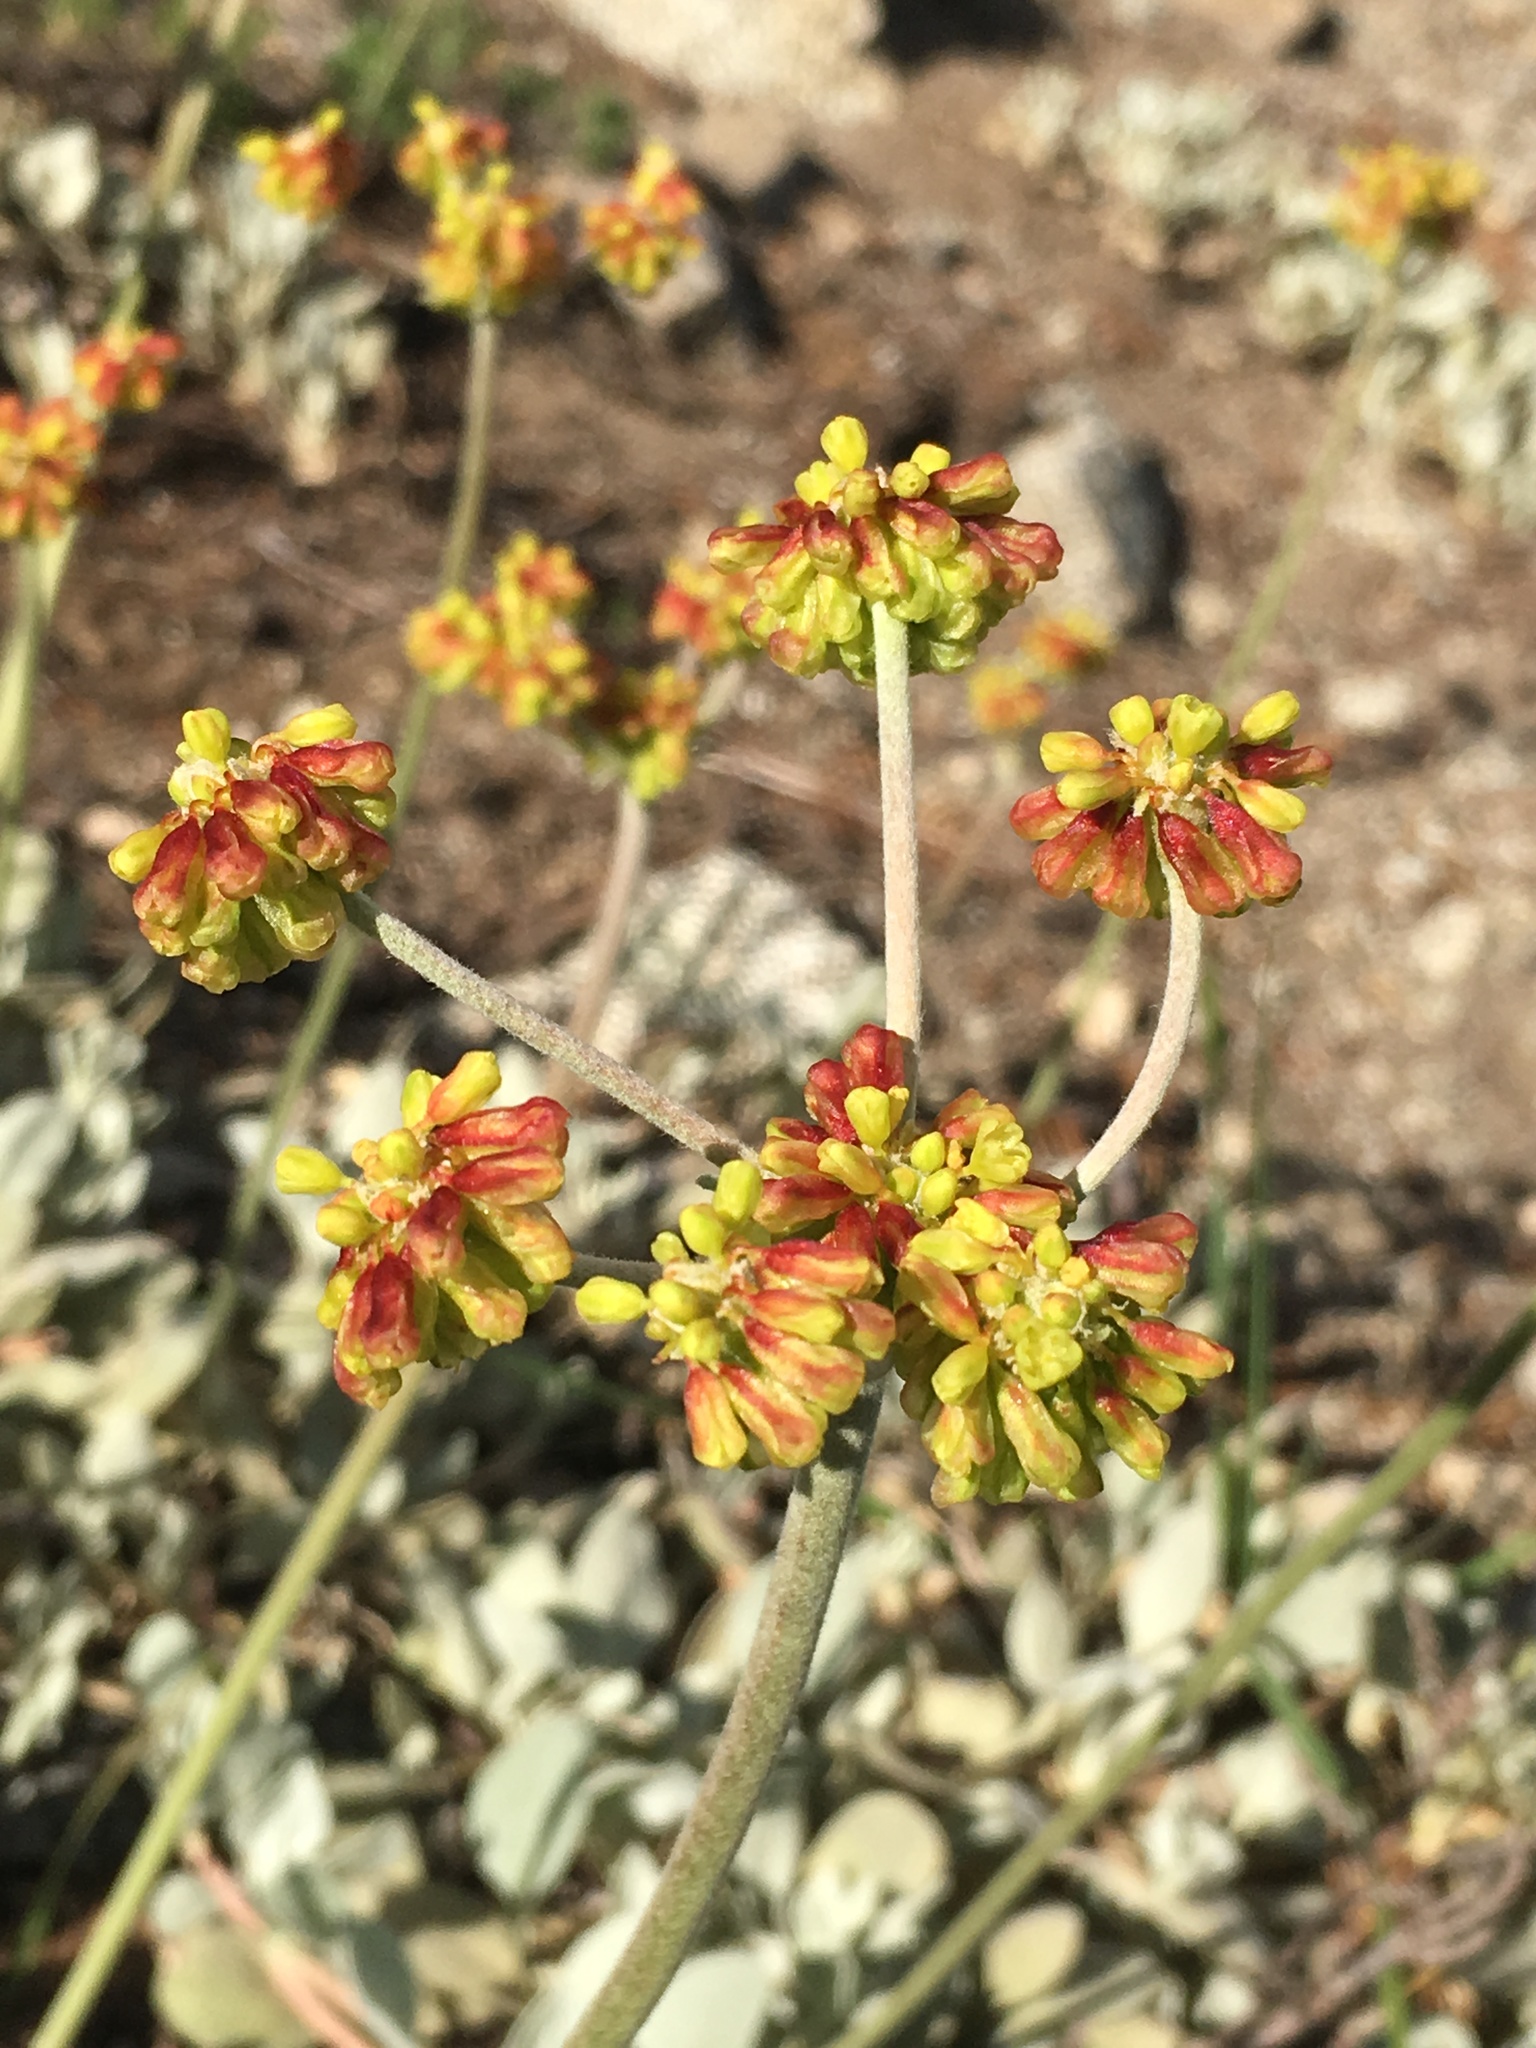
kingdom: Plantae
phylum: Tracheophyta
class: Magnoliopsida
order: Caryophyllales
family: Polygonaceae
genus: Eriogonum
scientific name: Eriogonum diclinum
